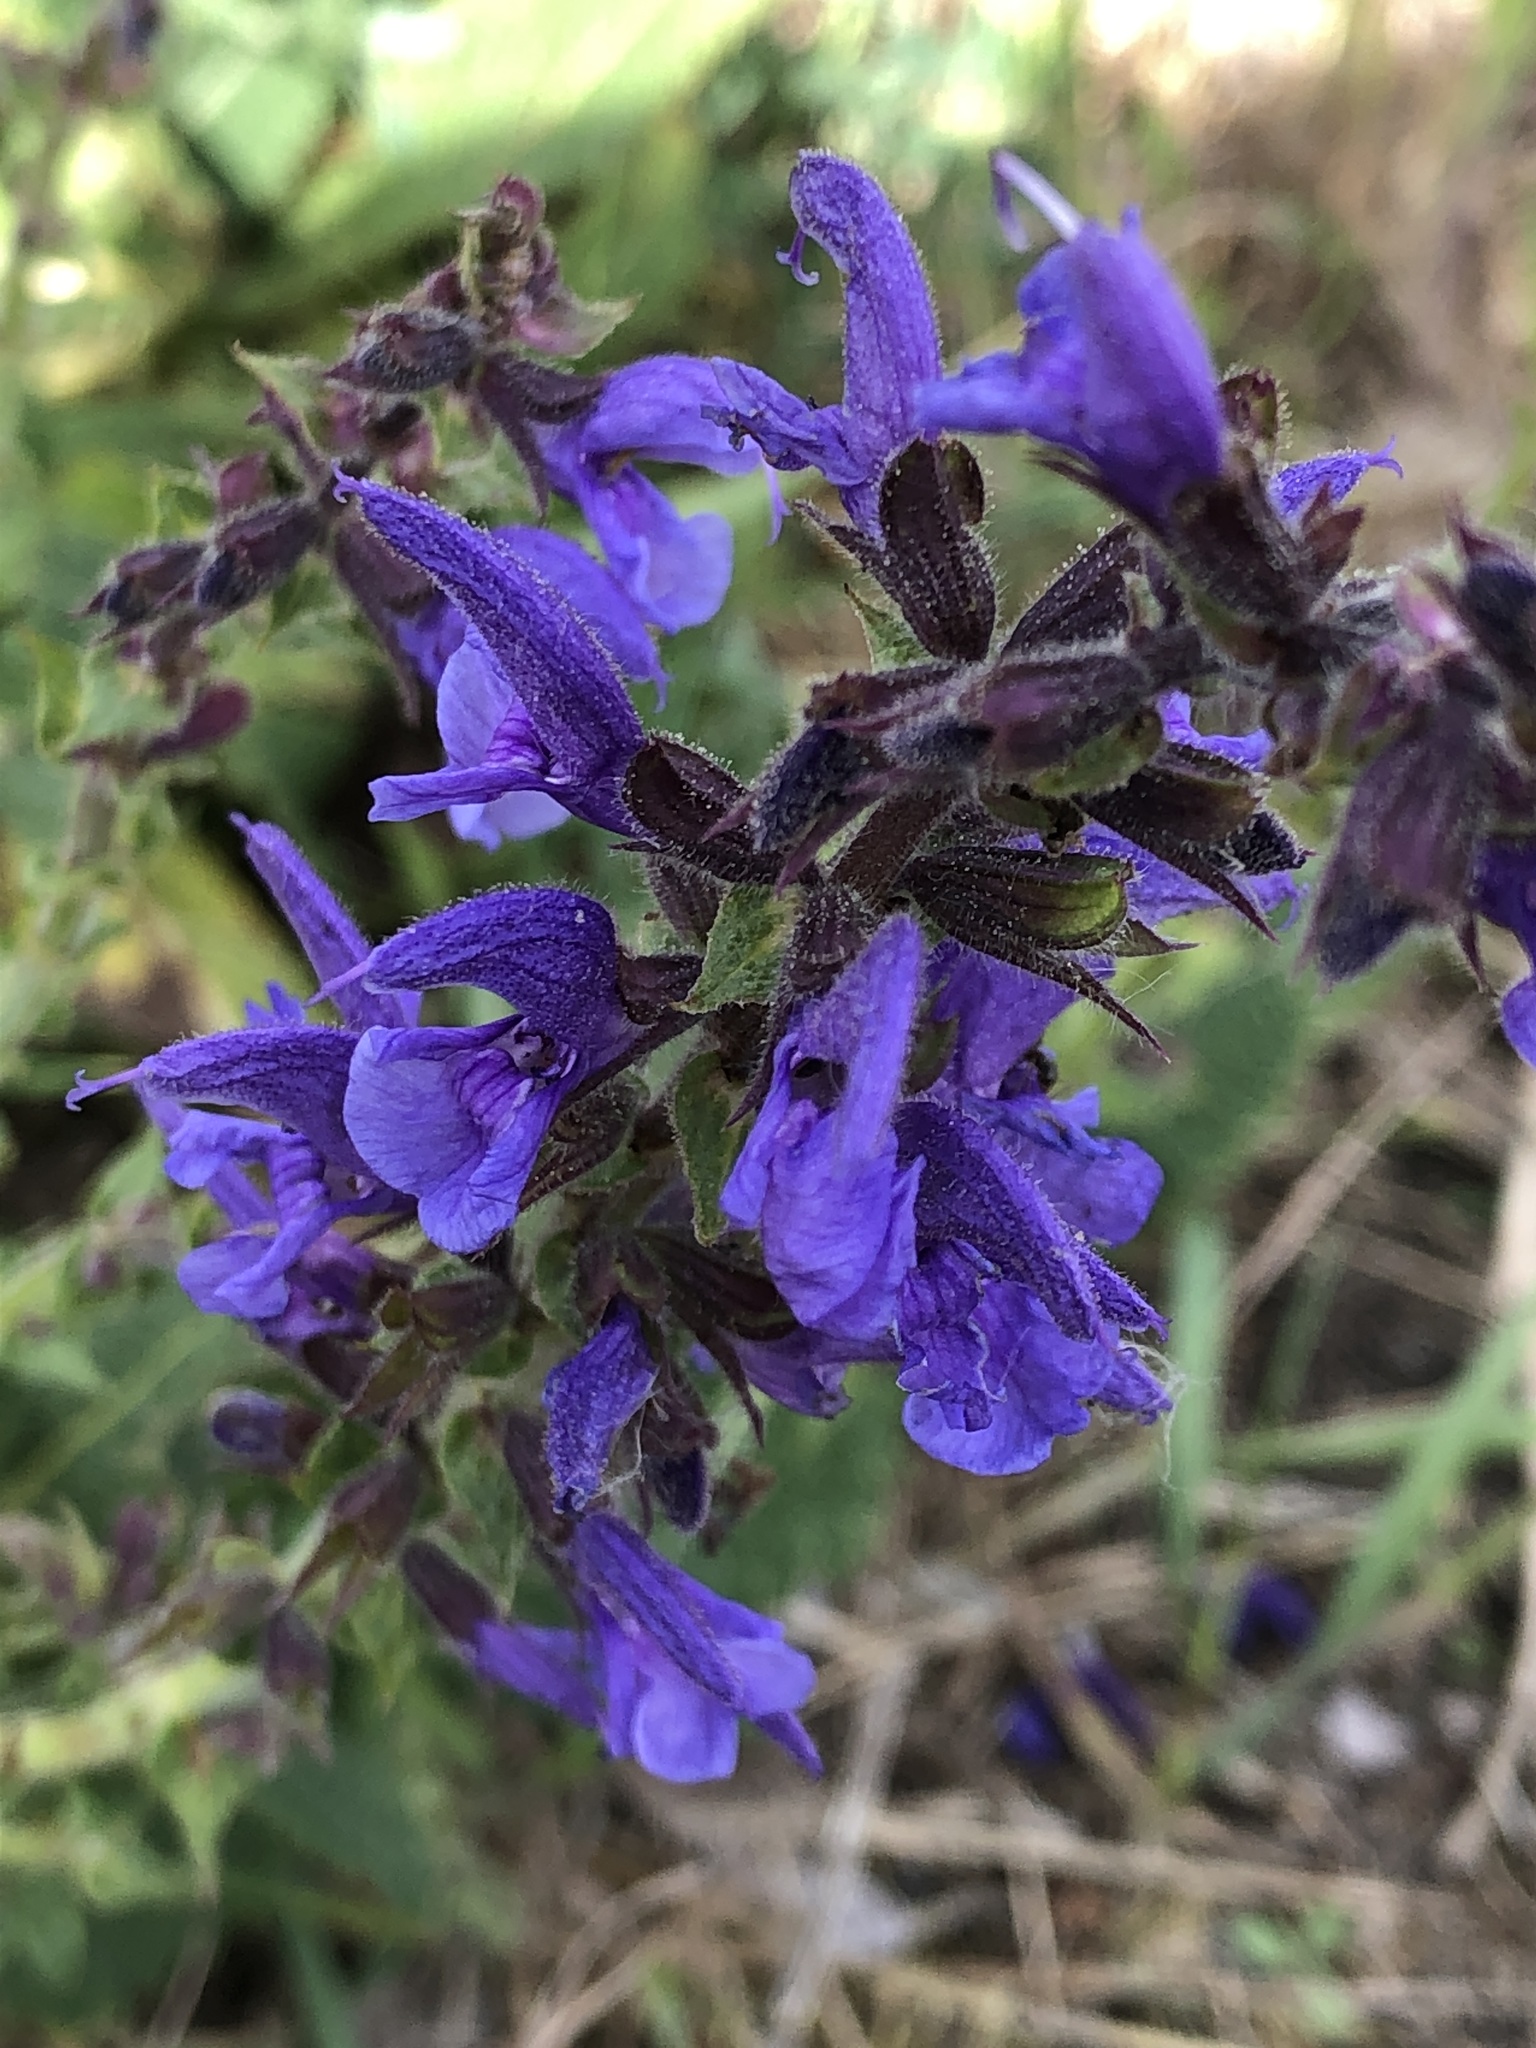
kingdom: Plantae
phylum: Tracheophyta
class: Magnoliopsida
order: Lamiales
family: Lamiaceae
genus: Salvia
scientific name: Salvia pratensis
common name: Meadow sage
